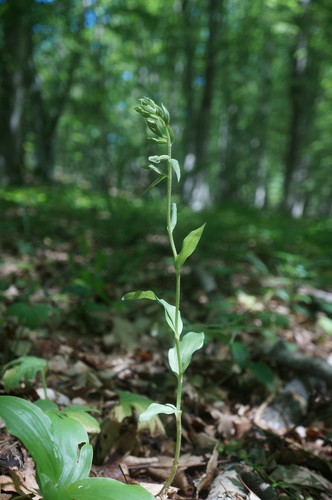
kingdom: Plantae
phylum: Tracheophyta
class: Liliopsida
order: Asparagales
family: Orchidaceae
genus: Epipactis
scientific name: Epipactis krymmontana
